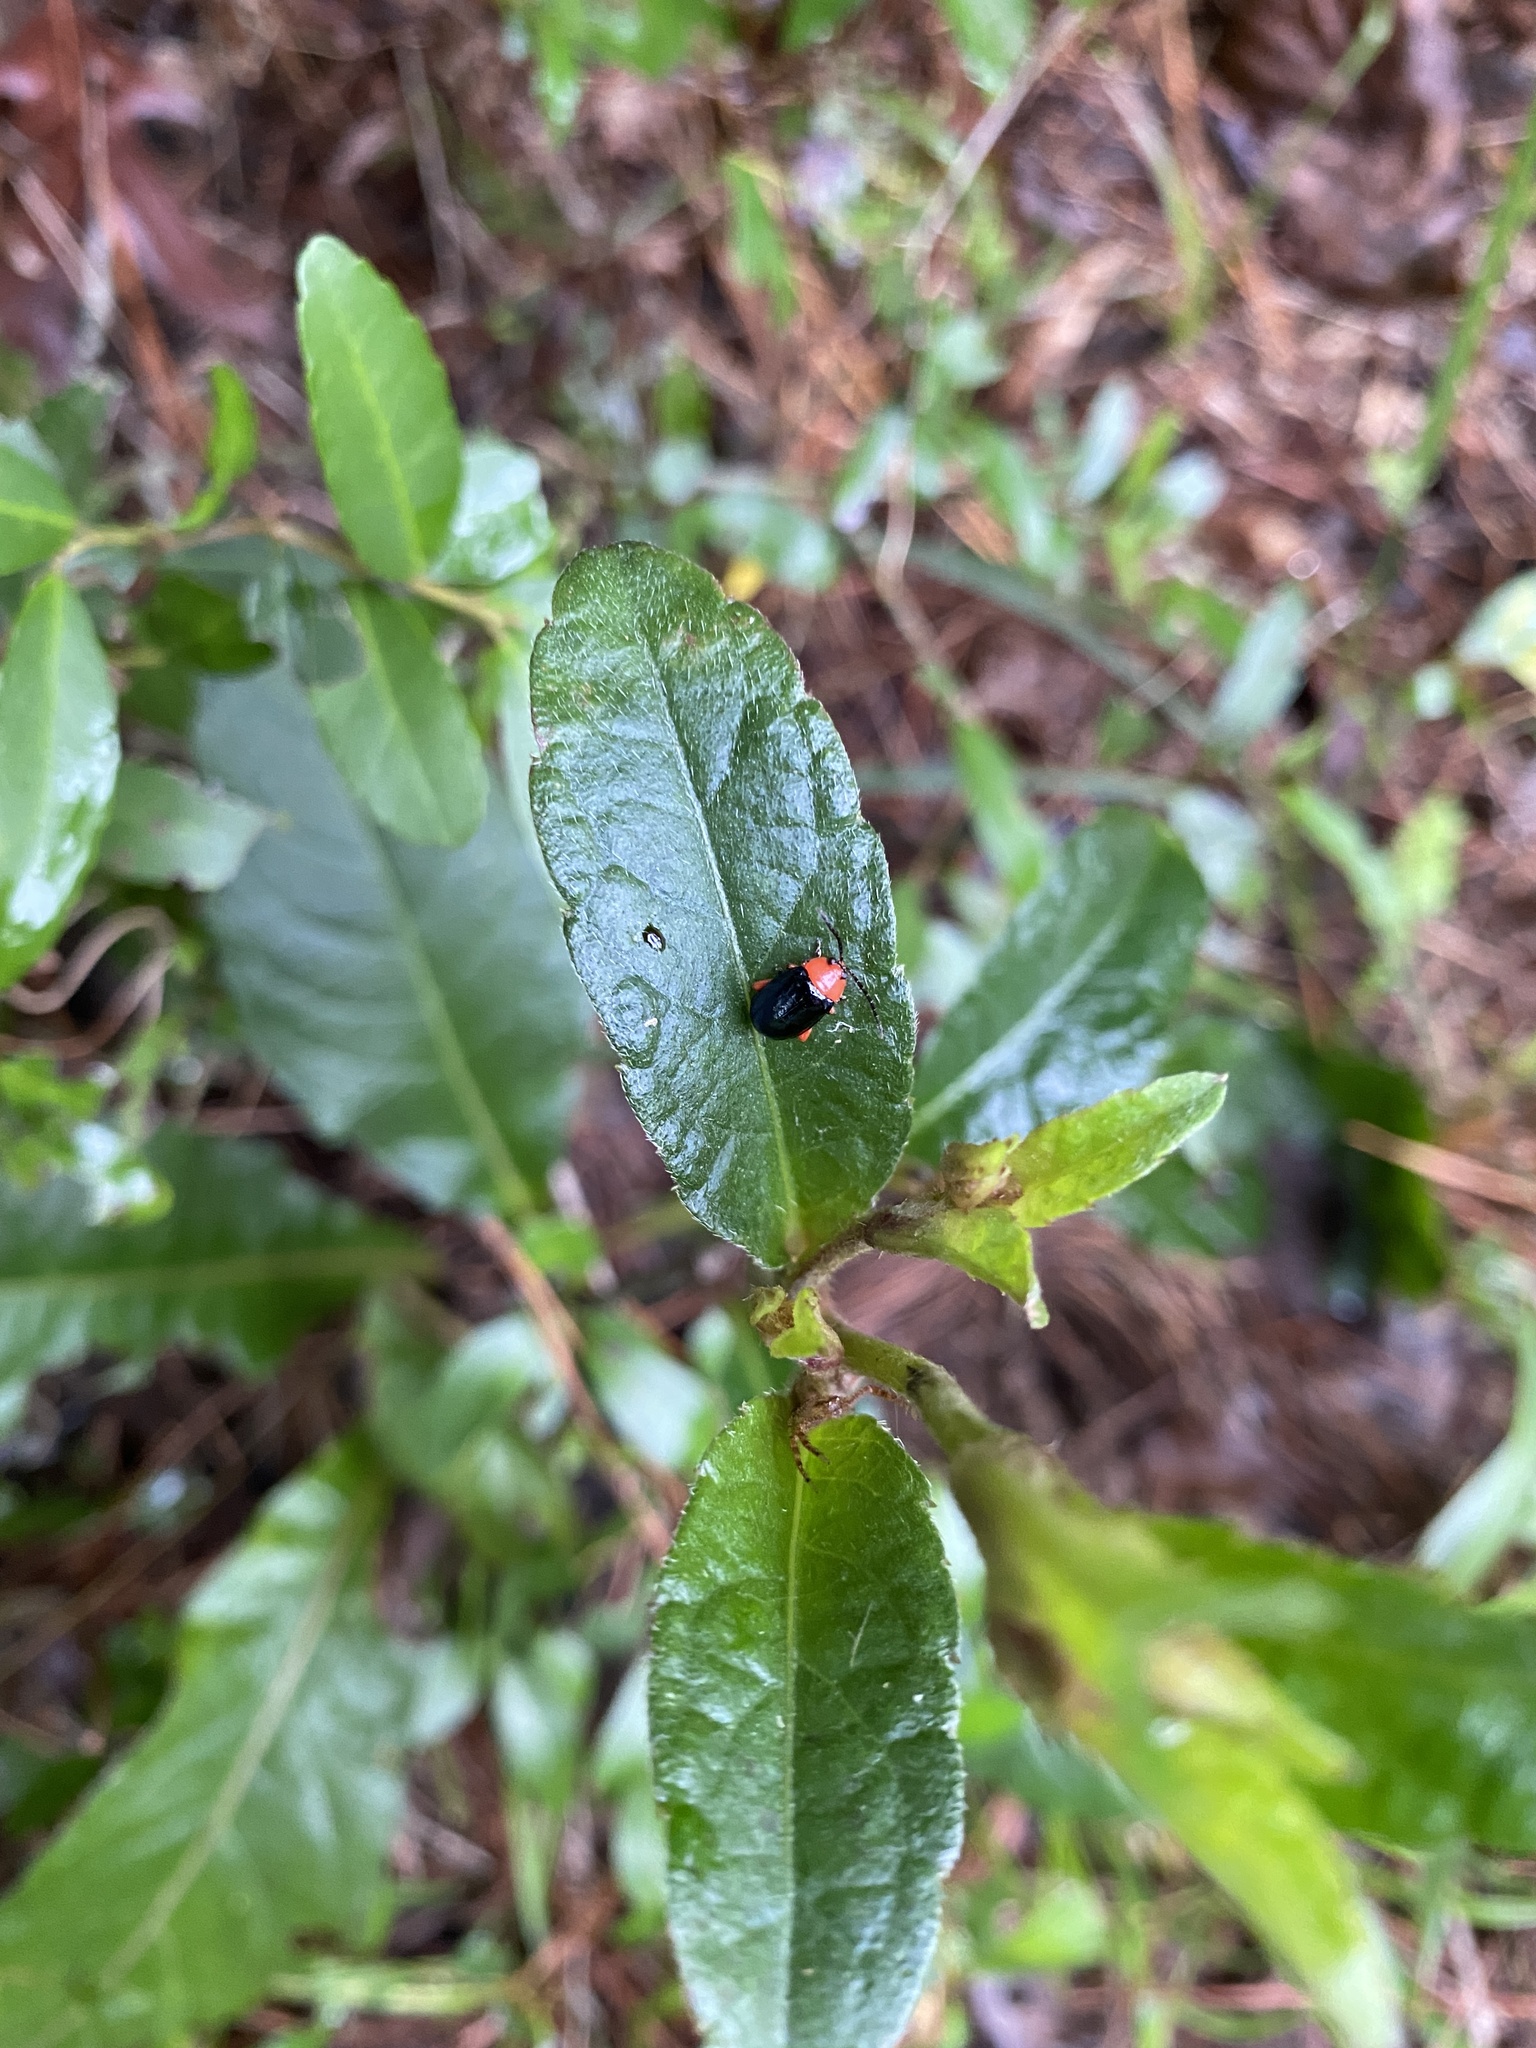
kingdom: Animalia
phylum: Arthropoda
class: Insecta
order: Coleoptera
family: Chrysomelidae
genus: Asphaera
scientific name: Asphaera lustrans
